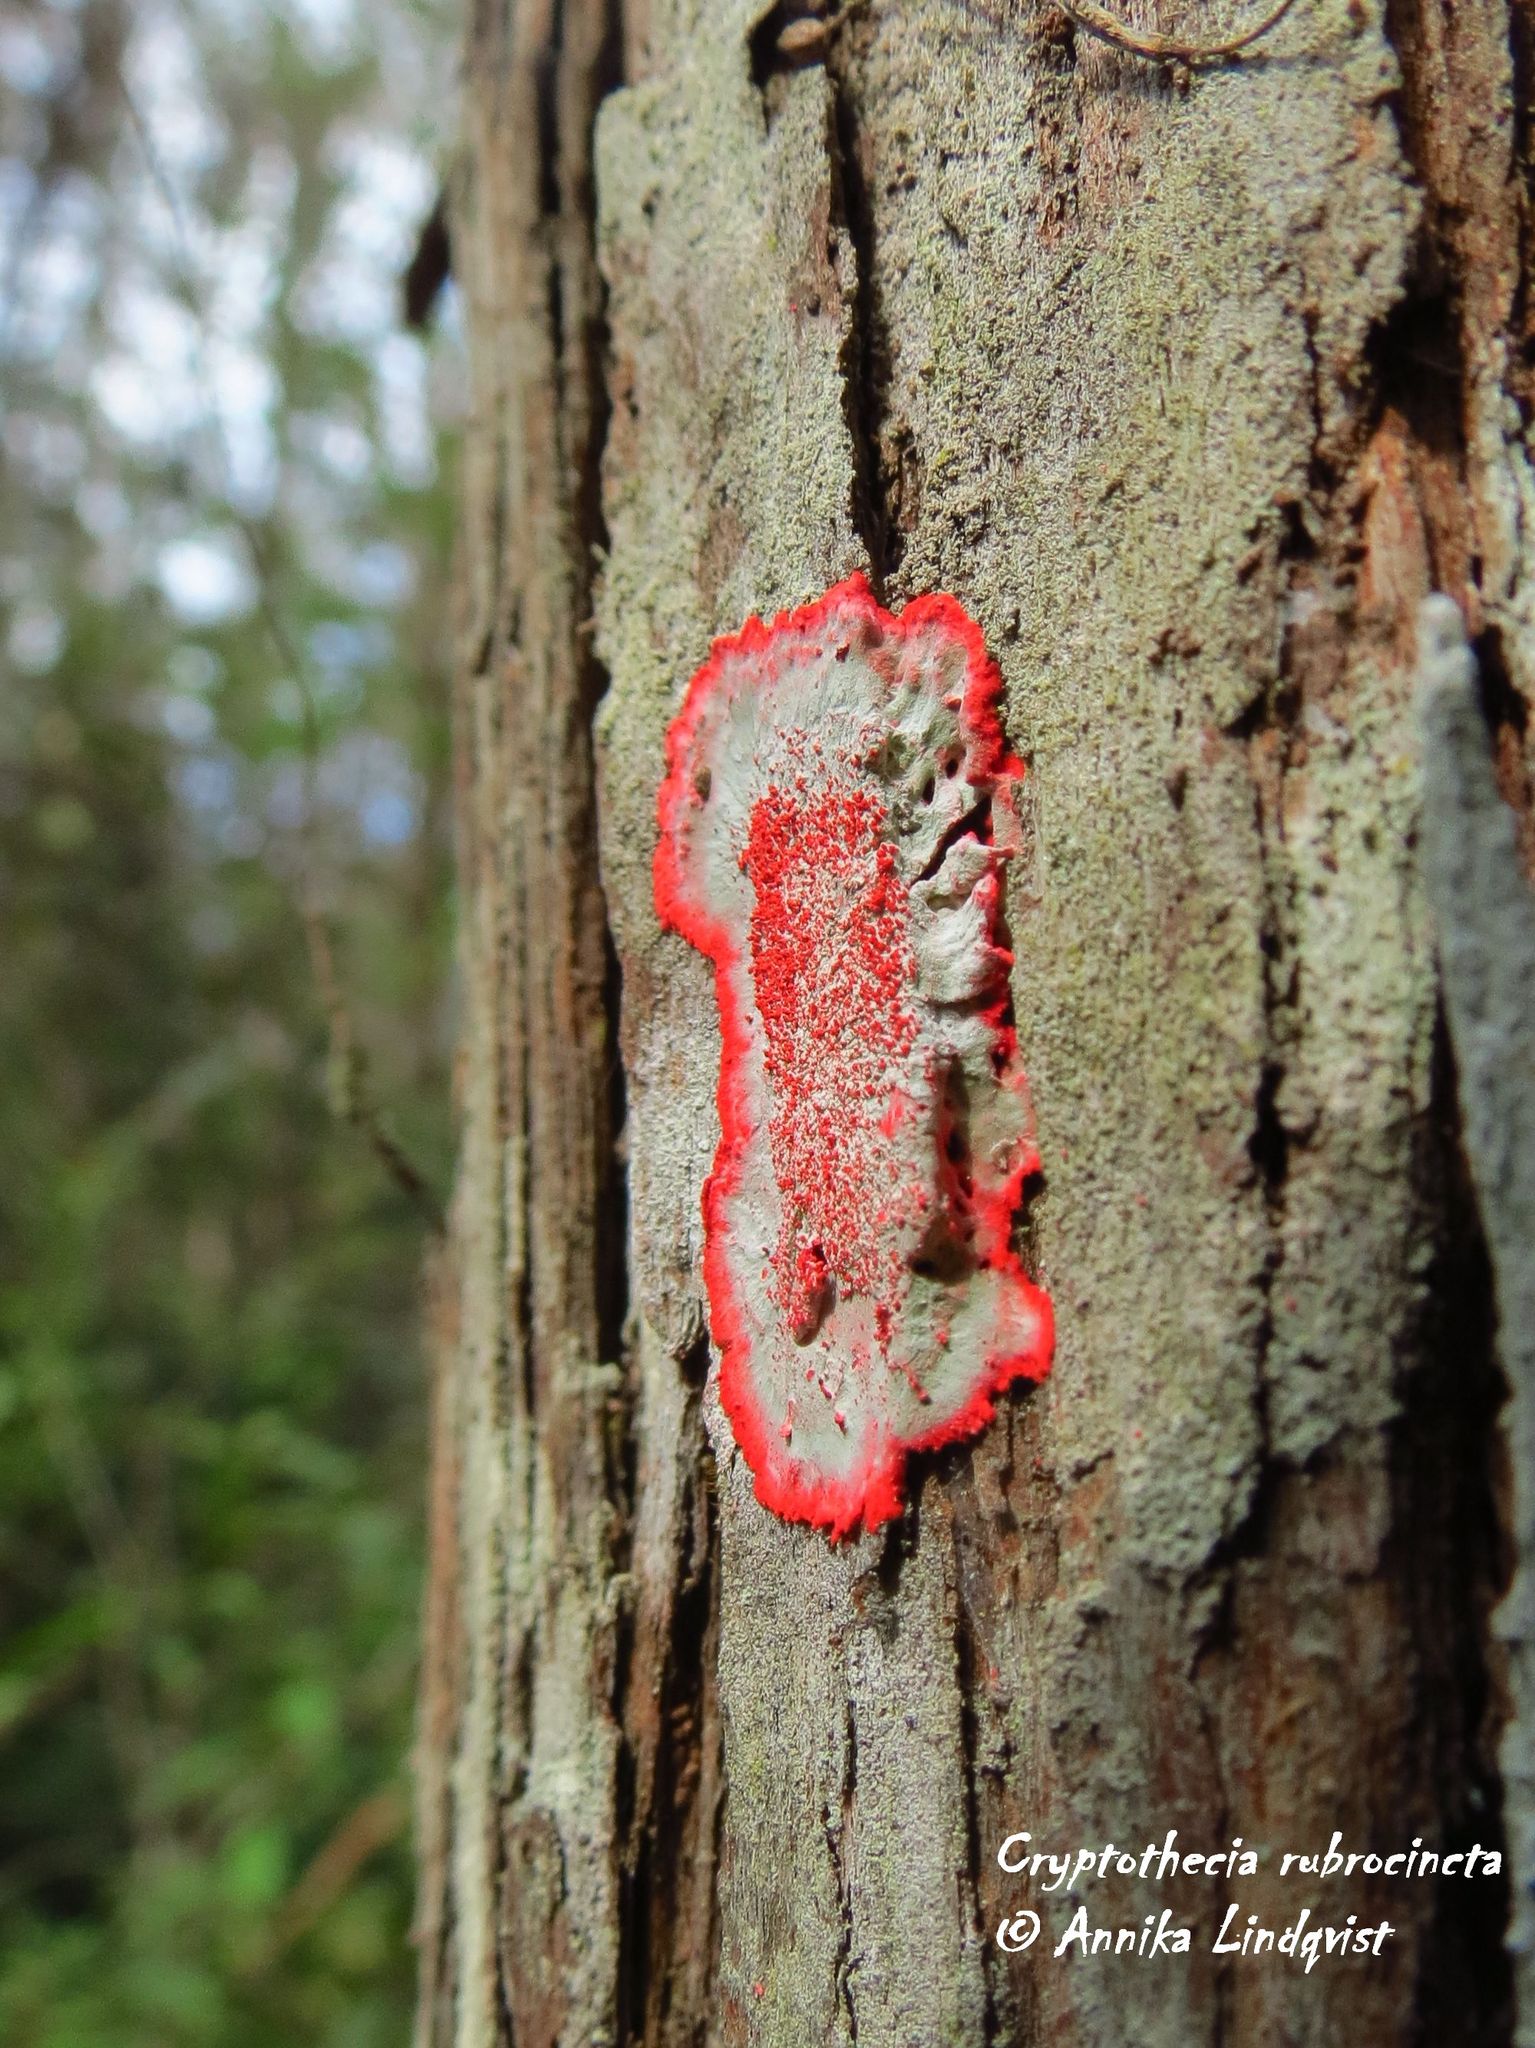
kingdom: Fungi
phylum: Ascomycota
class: Arthoniomycetes
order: Arthoniales
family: Arthoniaceae
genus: Herpothallon
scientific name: Herpothallon rubrocinctum
